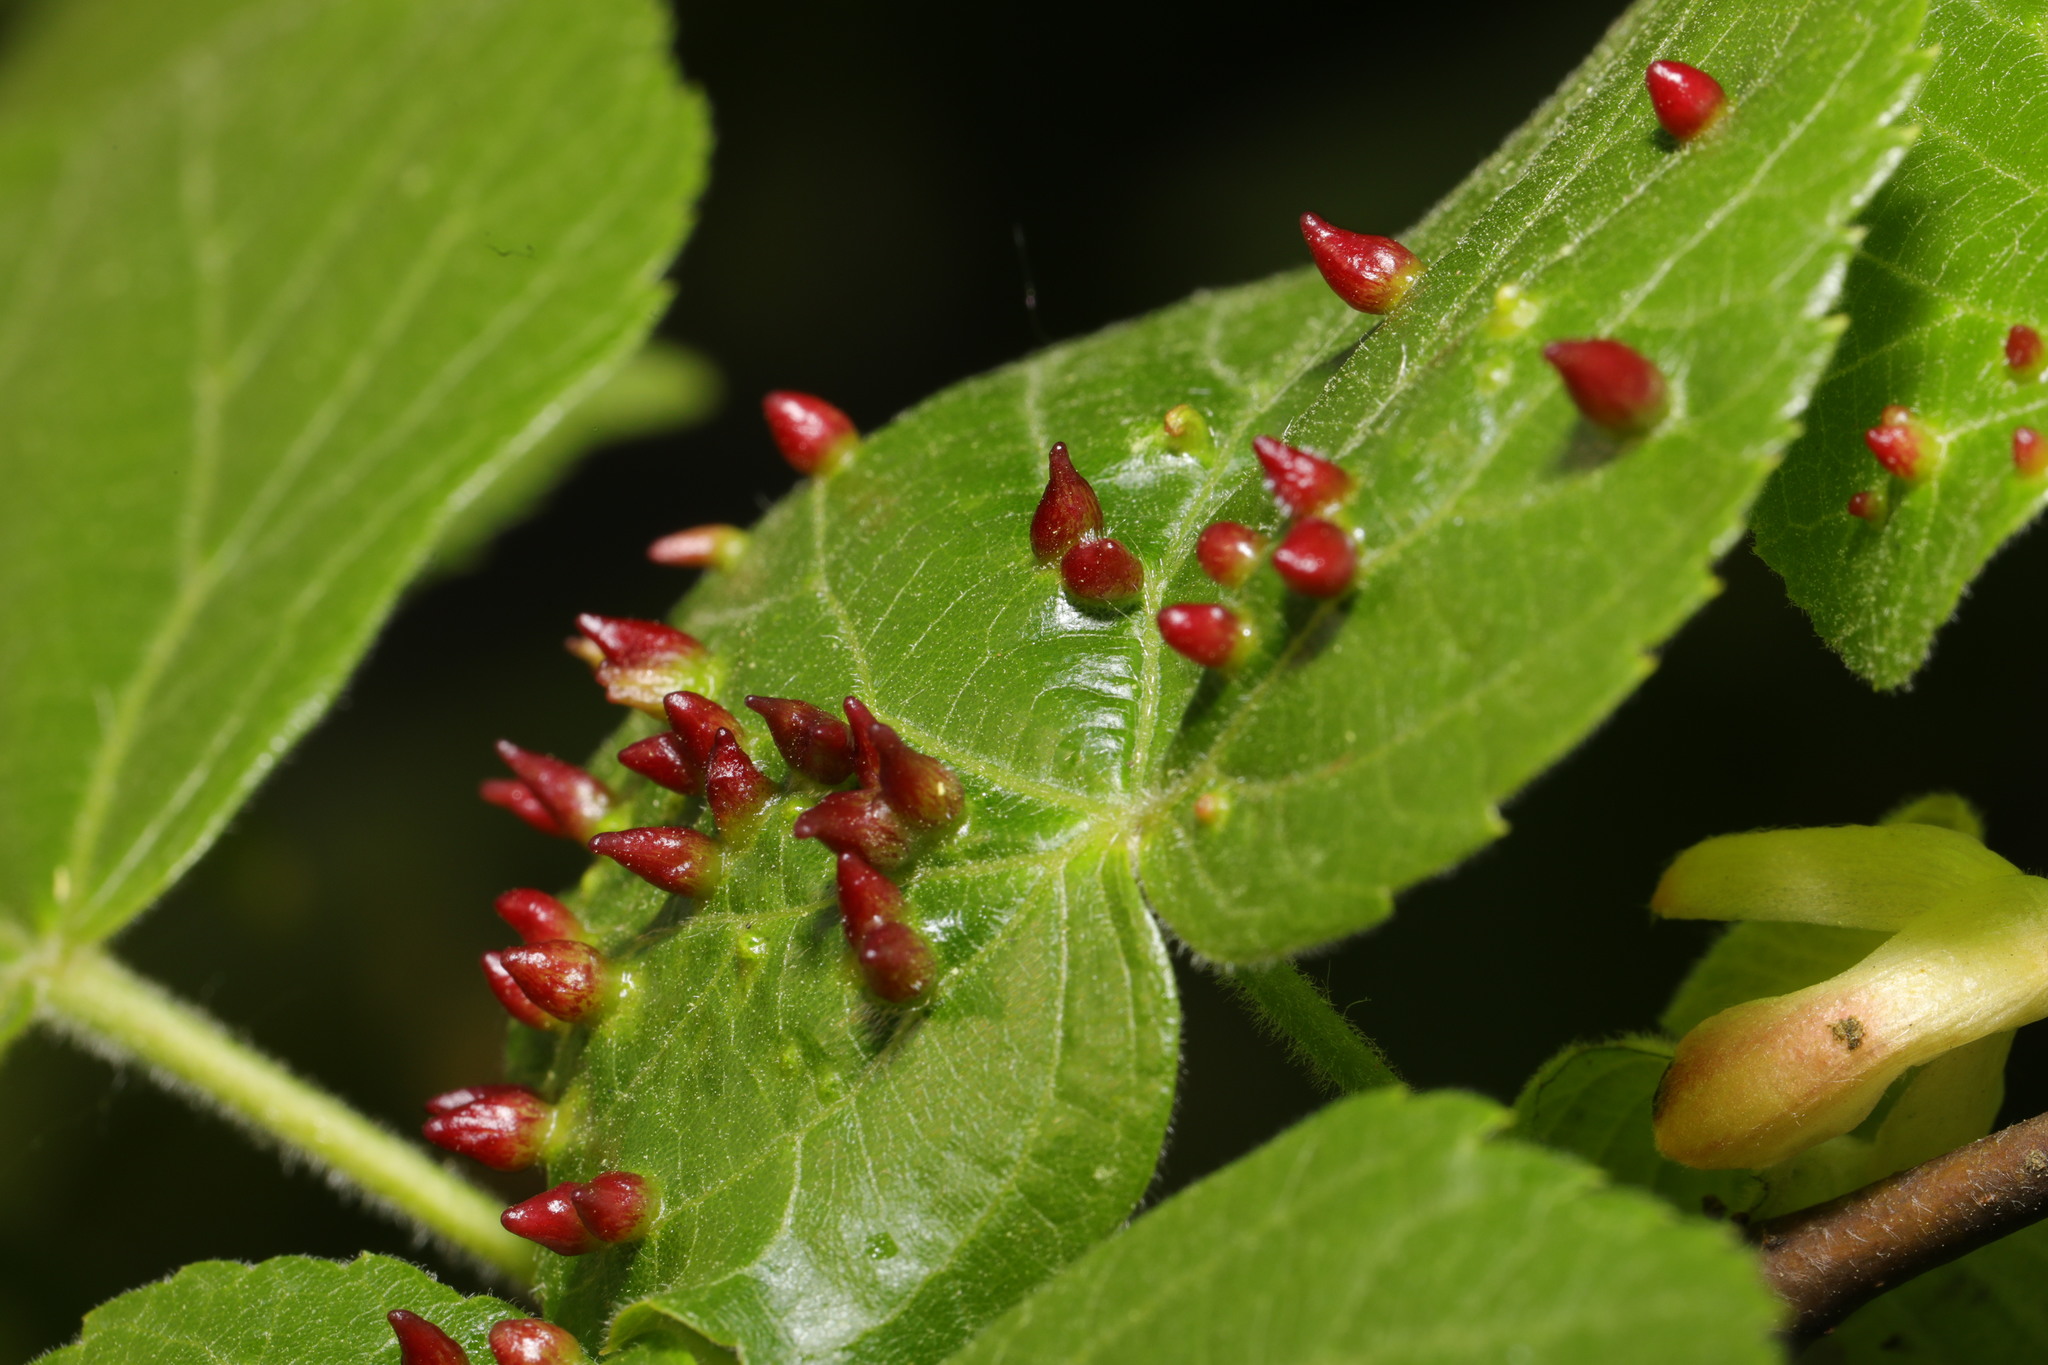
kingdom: Animalia
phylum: Arthropoda
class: Arachnida
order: Trombidiformes
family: Eriophyidae
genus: Eriophyes
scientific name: Eriophyes tiliae
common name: Red nail gall mite
